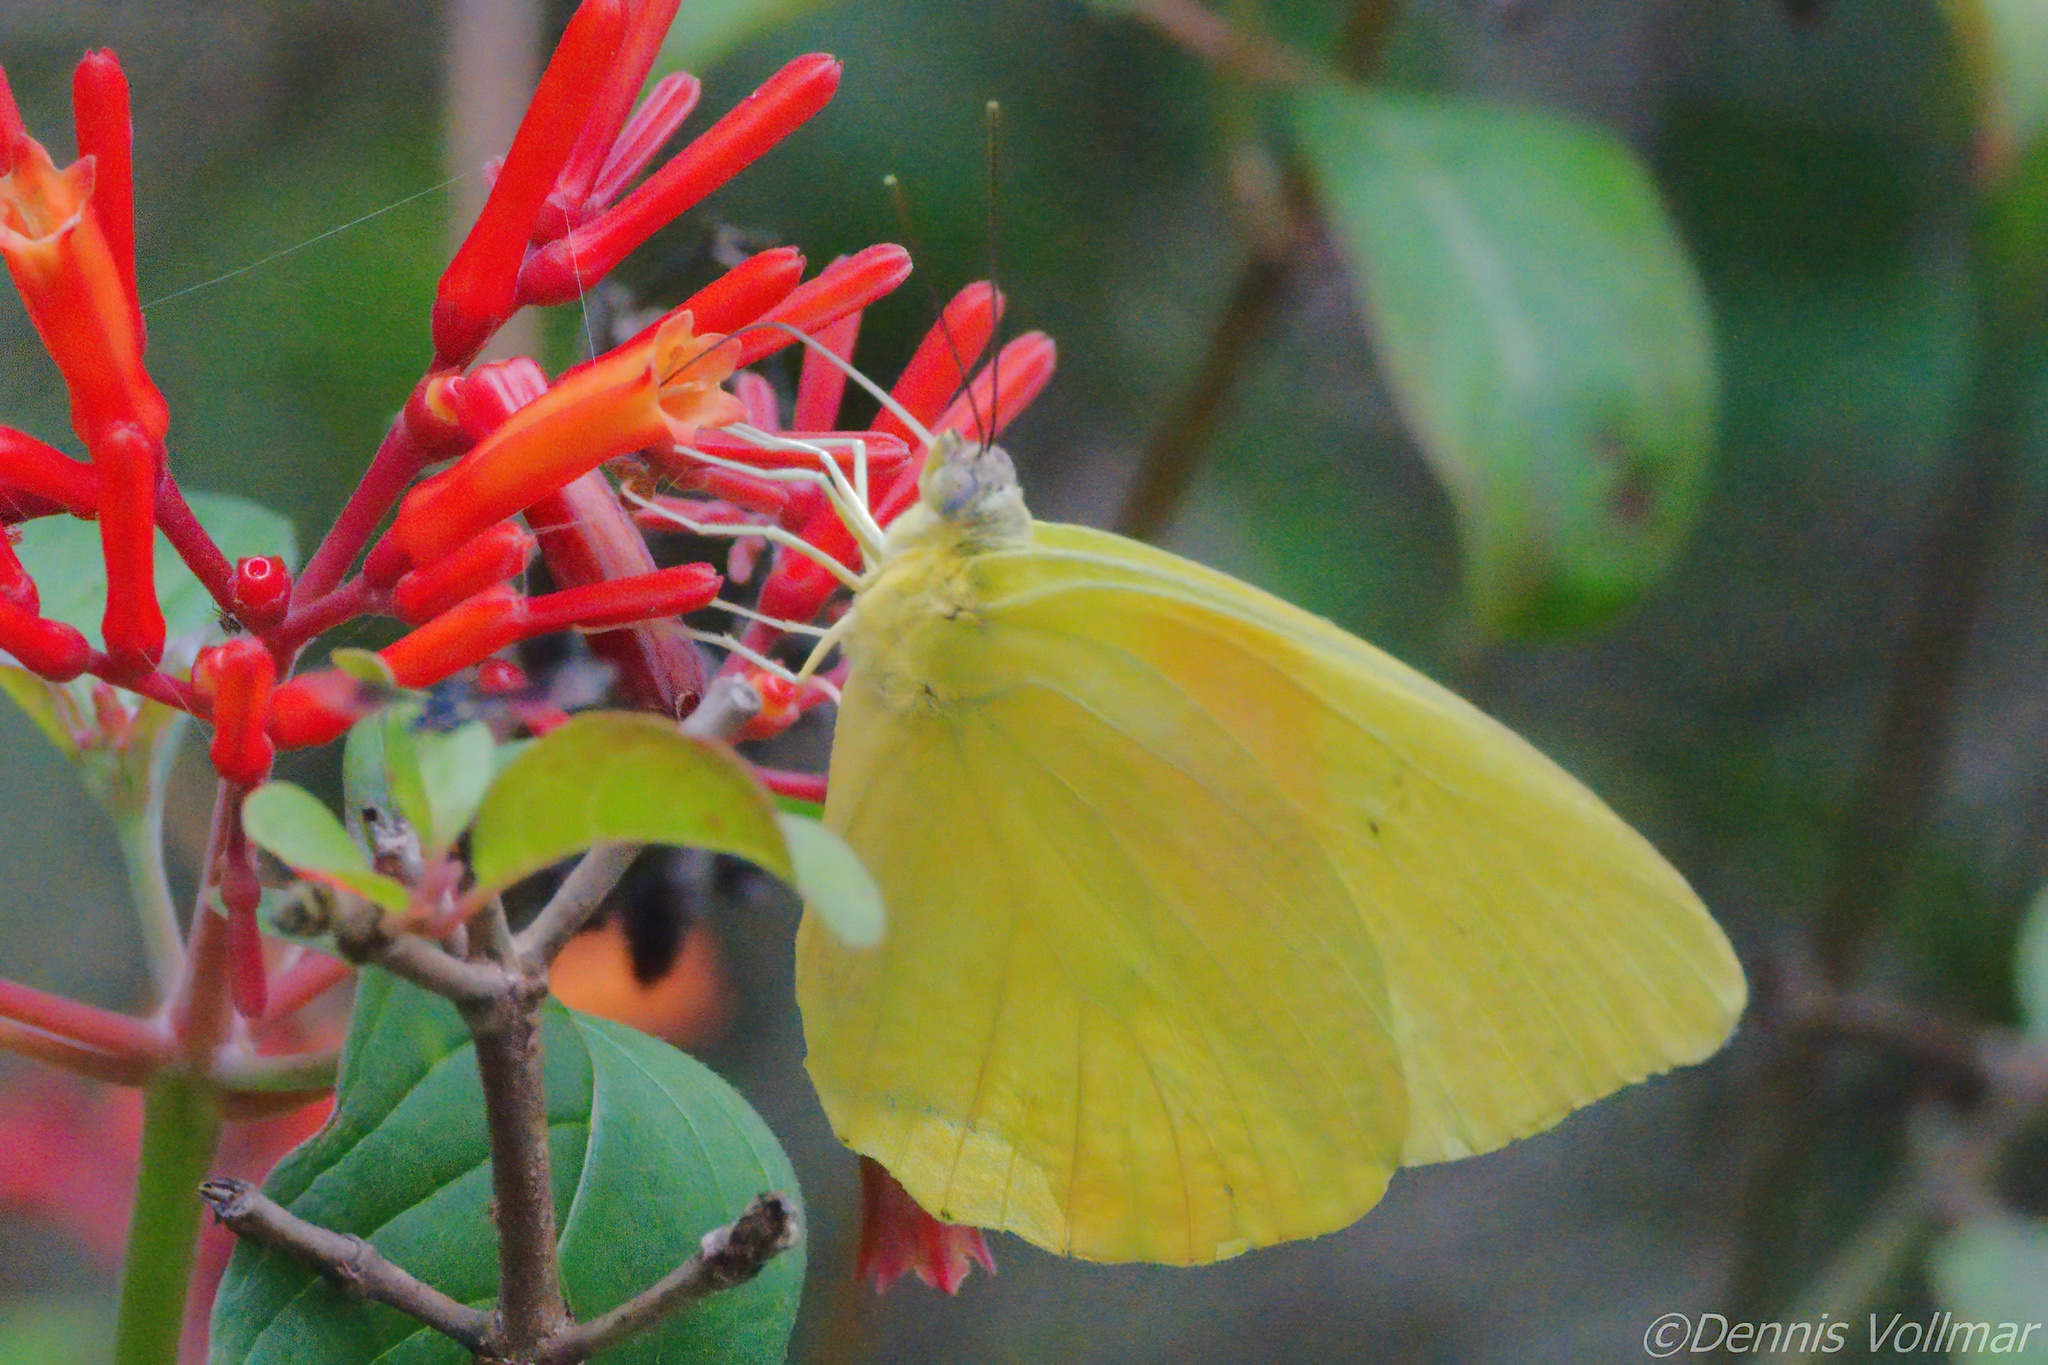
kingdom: Animalia
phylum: Arthropoda
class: Insecta
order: Lepidoptera
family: Pieridae
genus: Phoebis
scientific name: Phoebis philea
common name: Orange-barred giant sulphur
